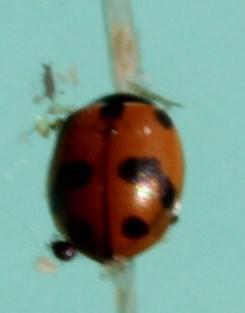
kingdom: Animalia
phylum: Arthropoda
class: Insecta
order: Coleoptera
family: Coccinellidae
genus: Hippodamia
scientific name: Hippodamia variegata
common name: Ladybird beetle
